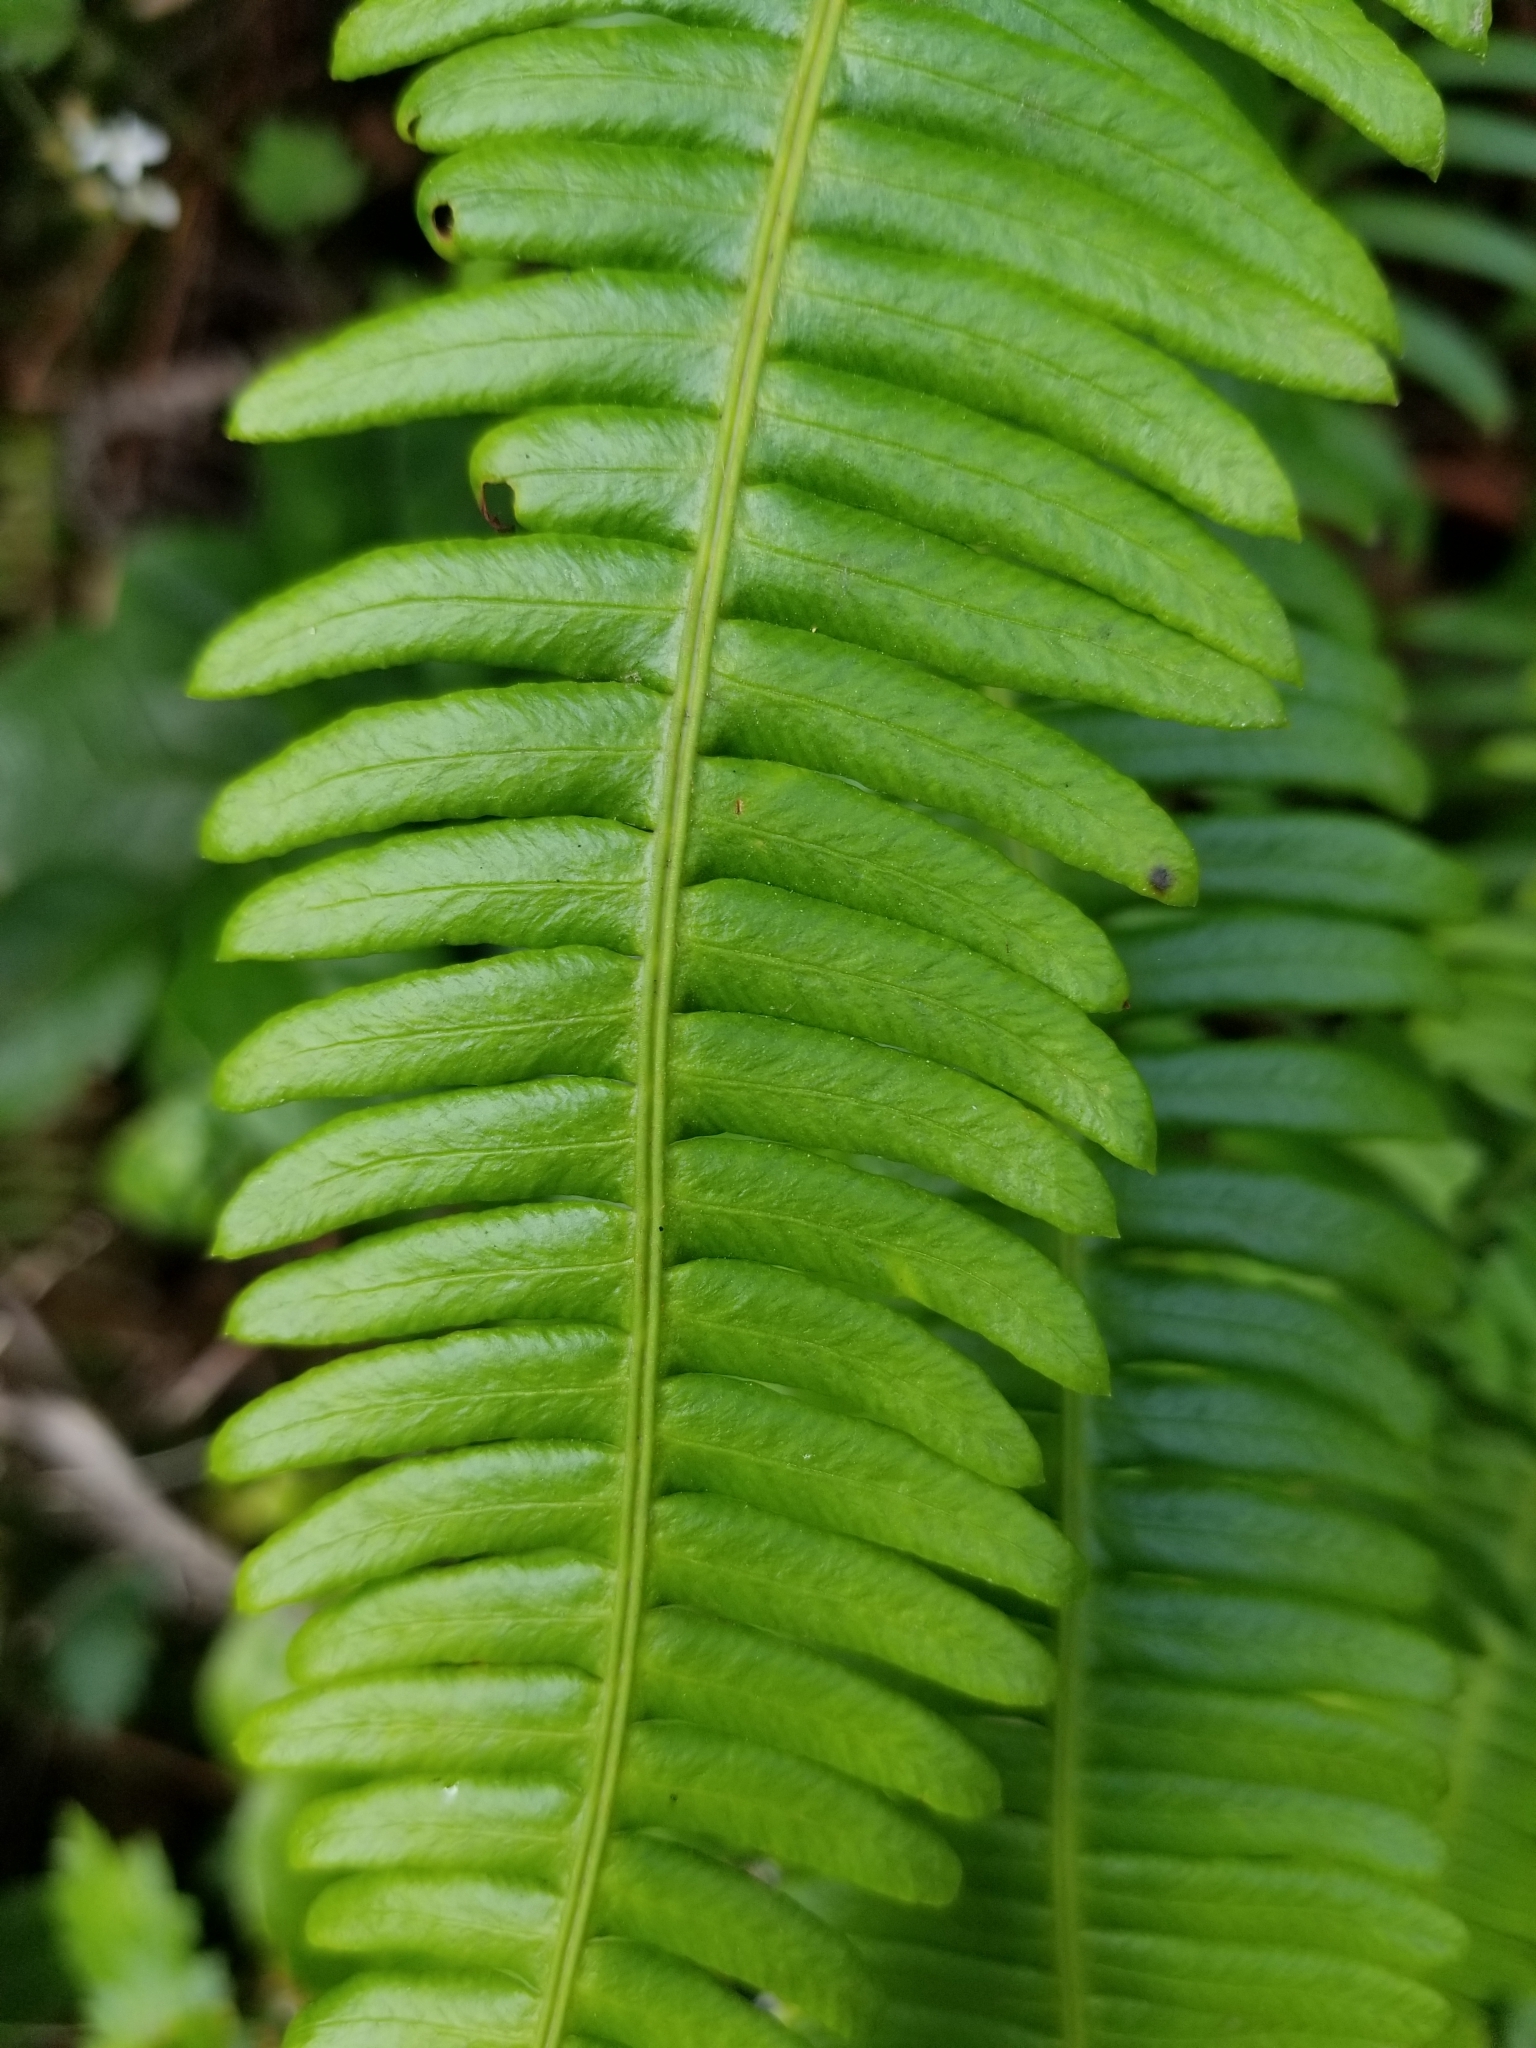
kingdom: Plantae
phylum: Tracheophyta
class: Polypodiopsida
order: Polypodiales
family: Blechnaceae
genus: Struthiopteris
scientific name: Struthiopteris spicant
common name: Deer fern
